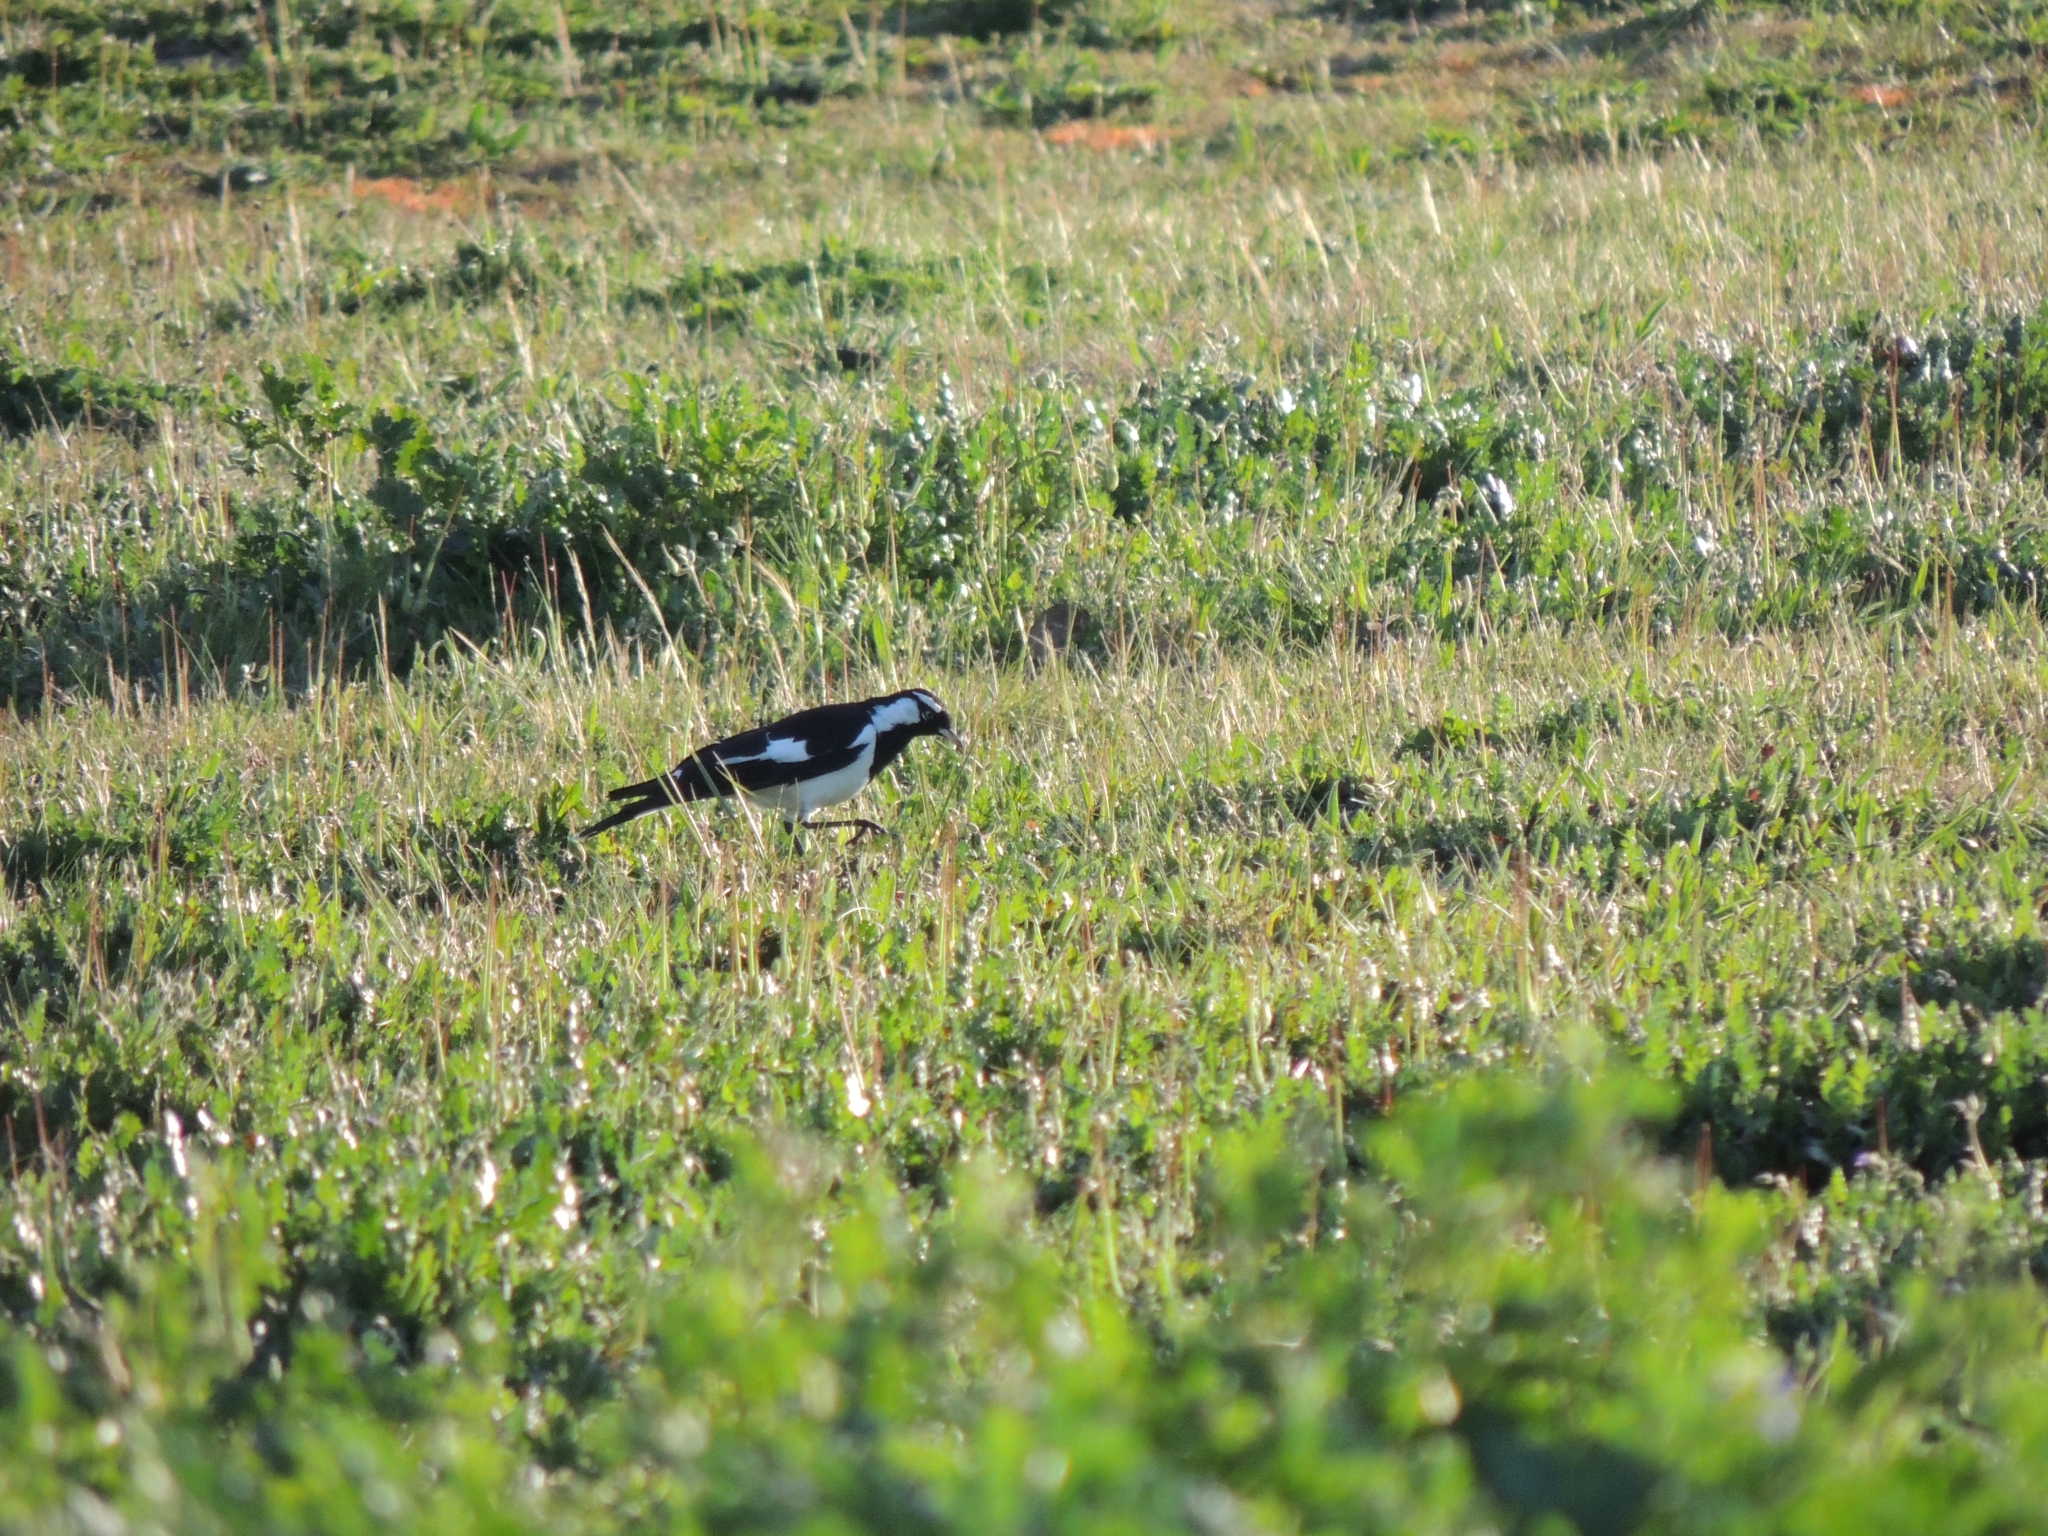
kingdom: Animalia
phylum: Chordata
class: Aves
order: Passeriformes
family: Monarchidae
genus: Grallina
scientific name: Grallina cyanoleuca
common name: Magpie-lark
